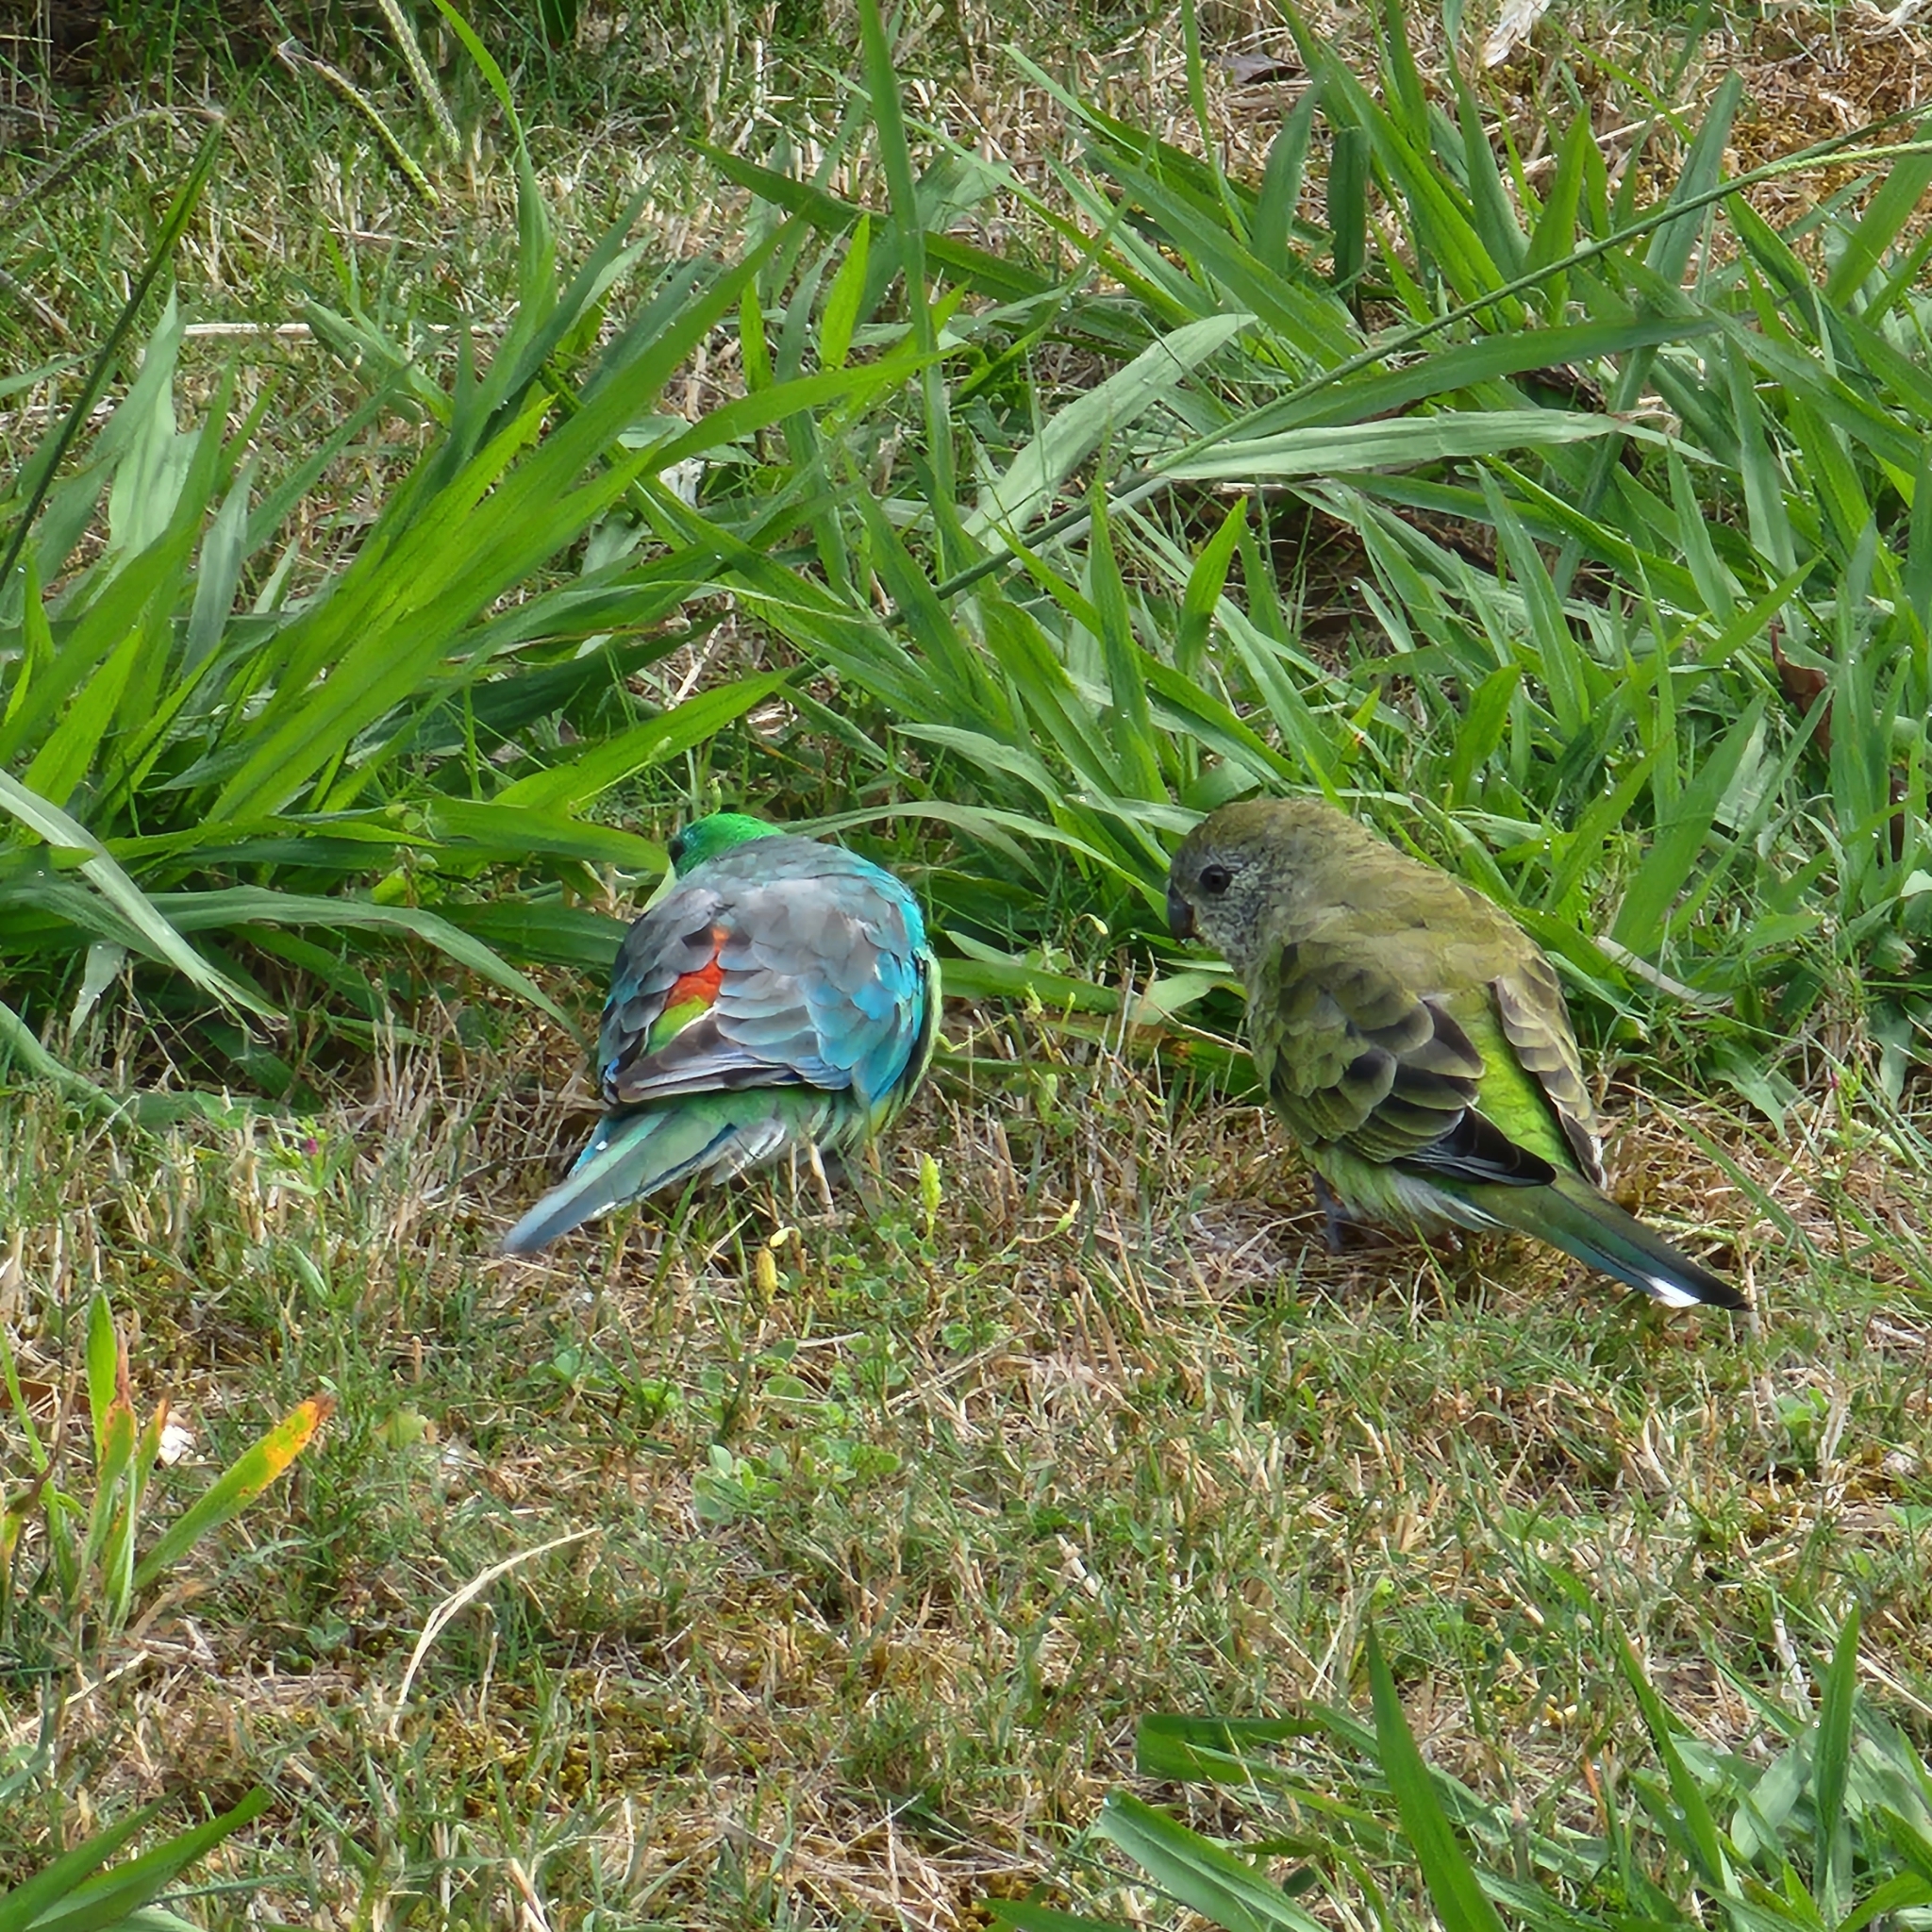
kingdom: Animalia
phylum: Chordata
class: Aves
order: Psittaciformes
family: Psittacidae
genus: Psephotus
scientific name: Psephotus haematonotus
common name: Red-rumped parrot
